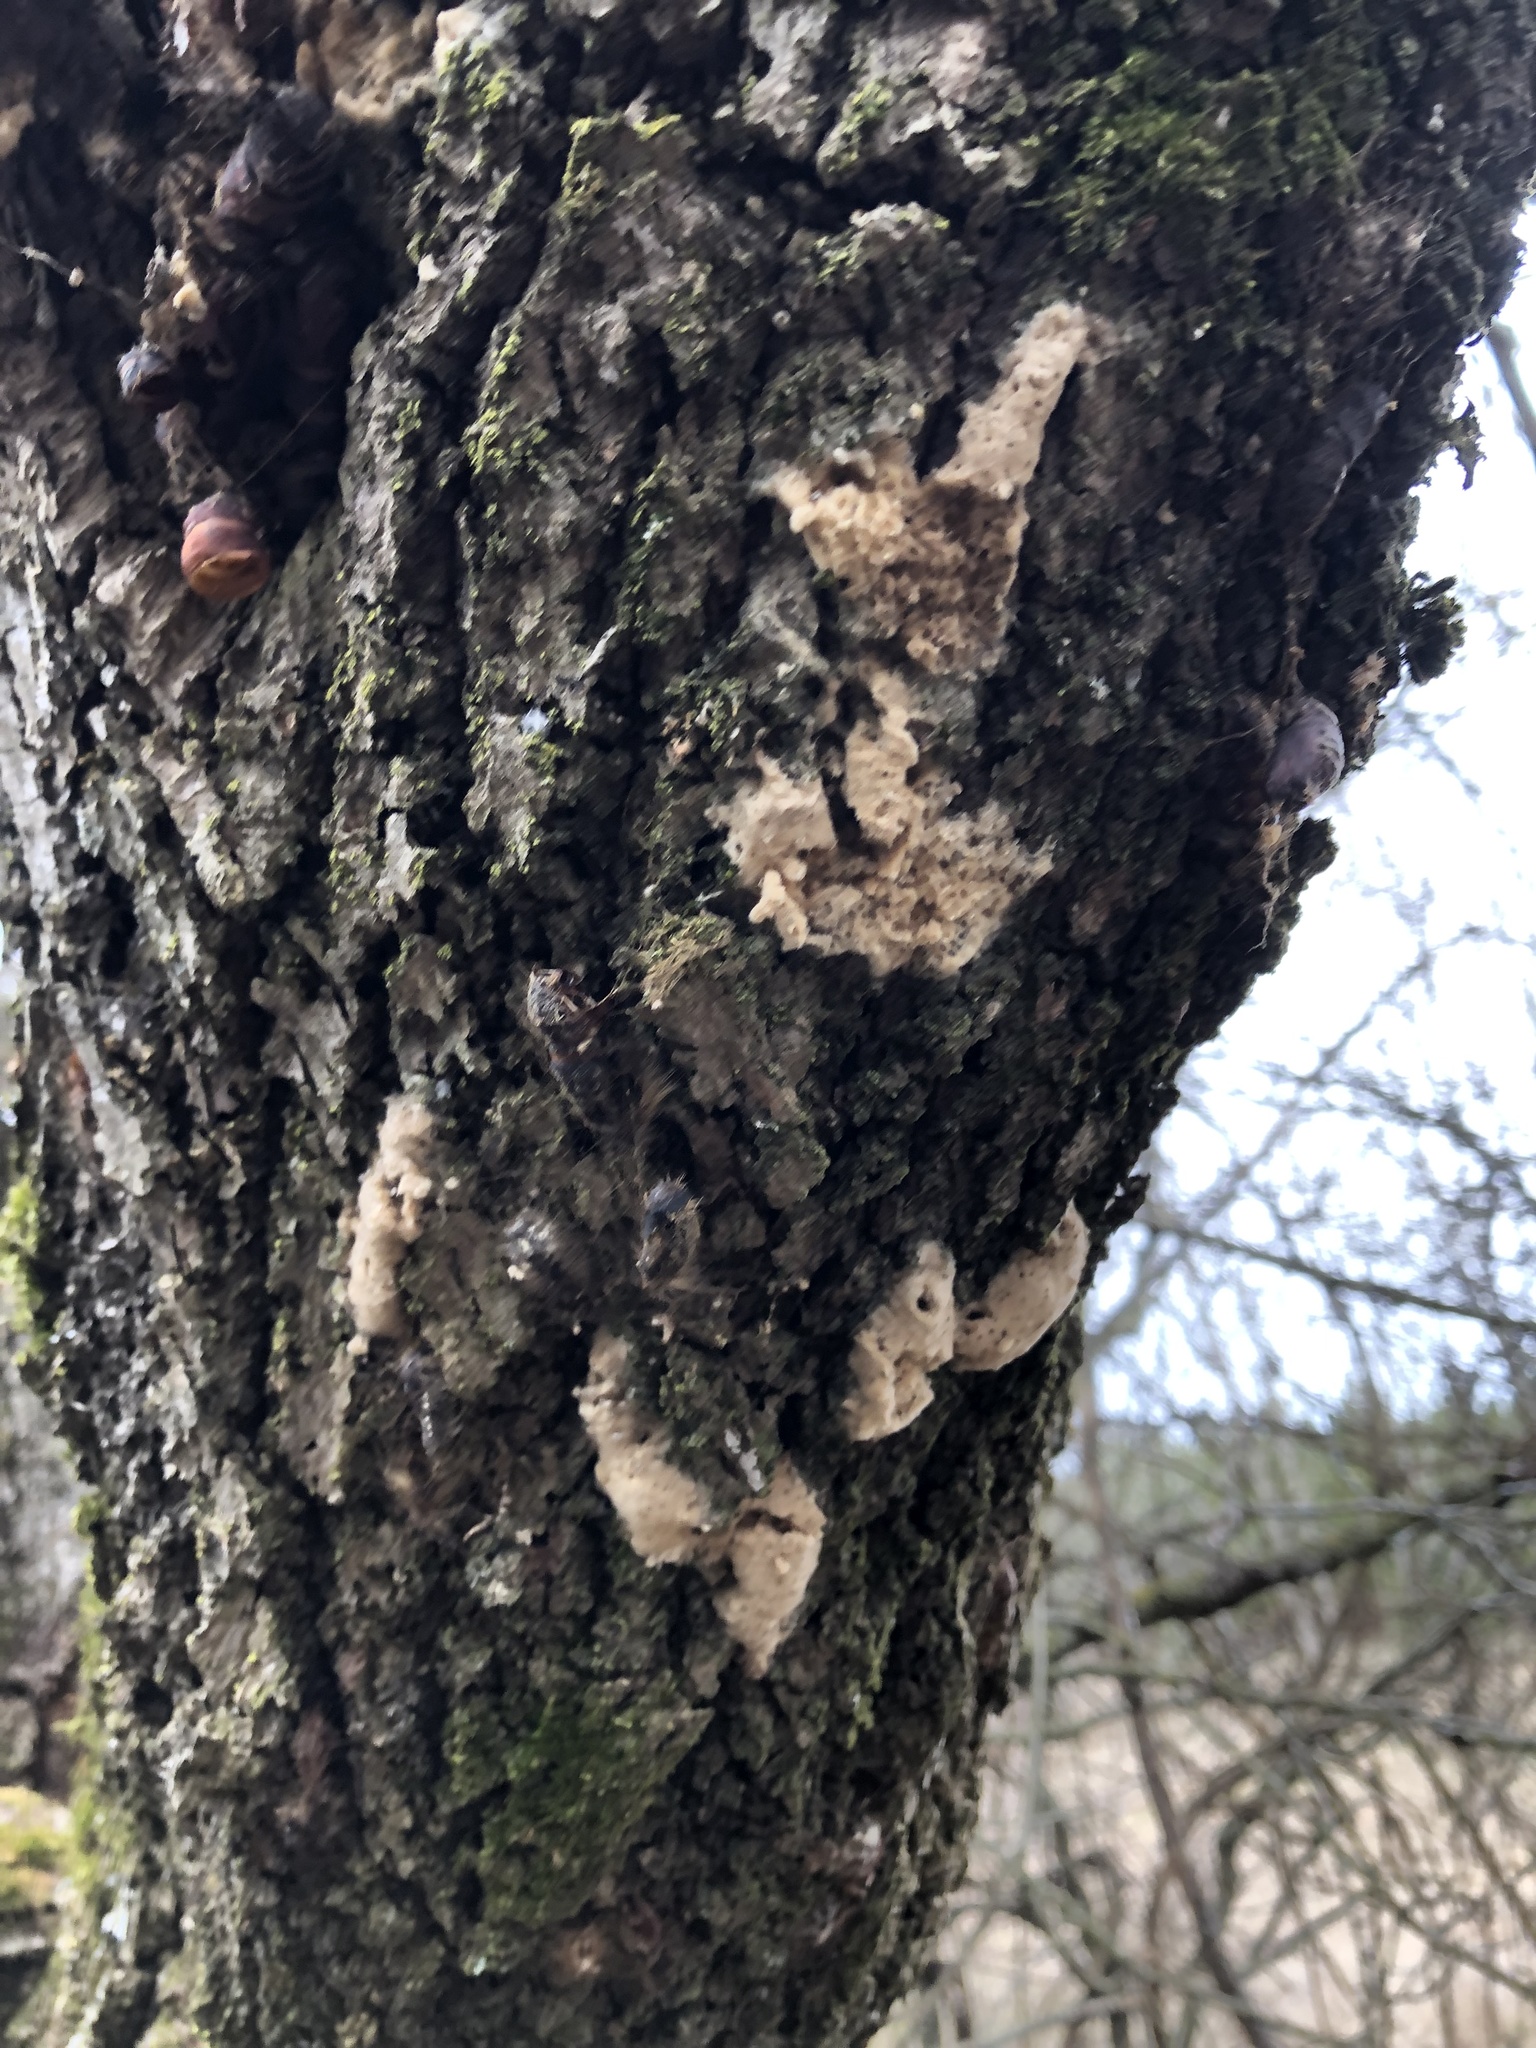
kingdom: Animalia
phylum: Arthropoda
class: Insecta
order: Lepidoptera
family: Erebidae
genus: Lymantria
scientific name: Lymantria dispar
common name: Gypsy moth
